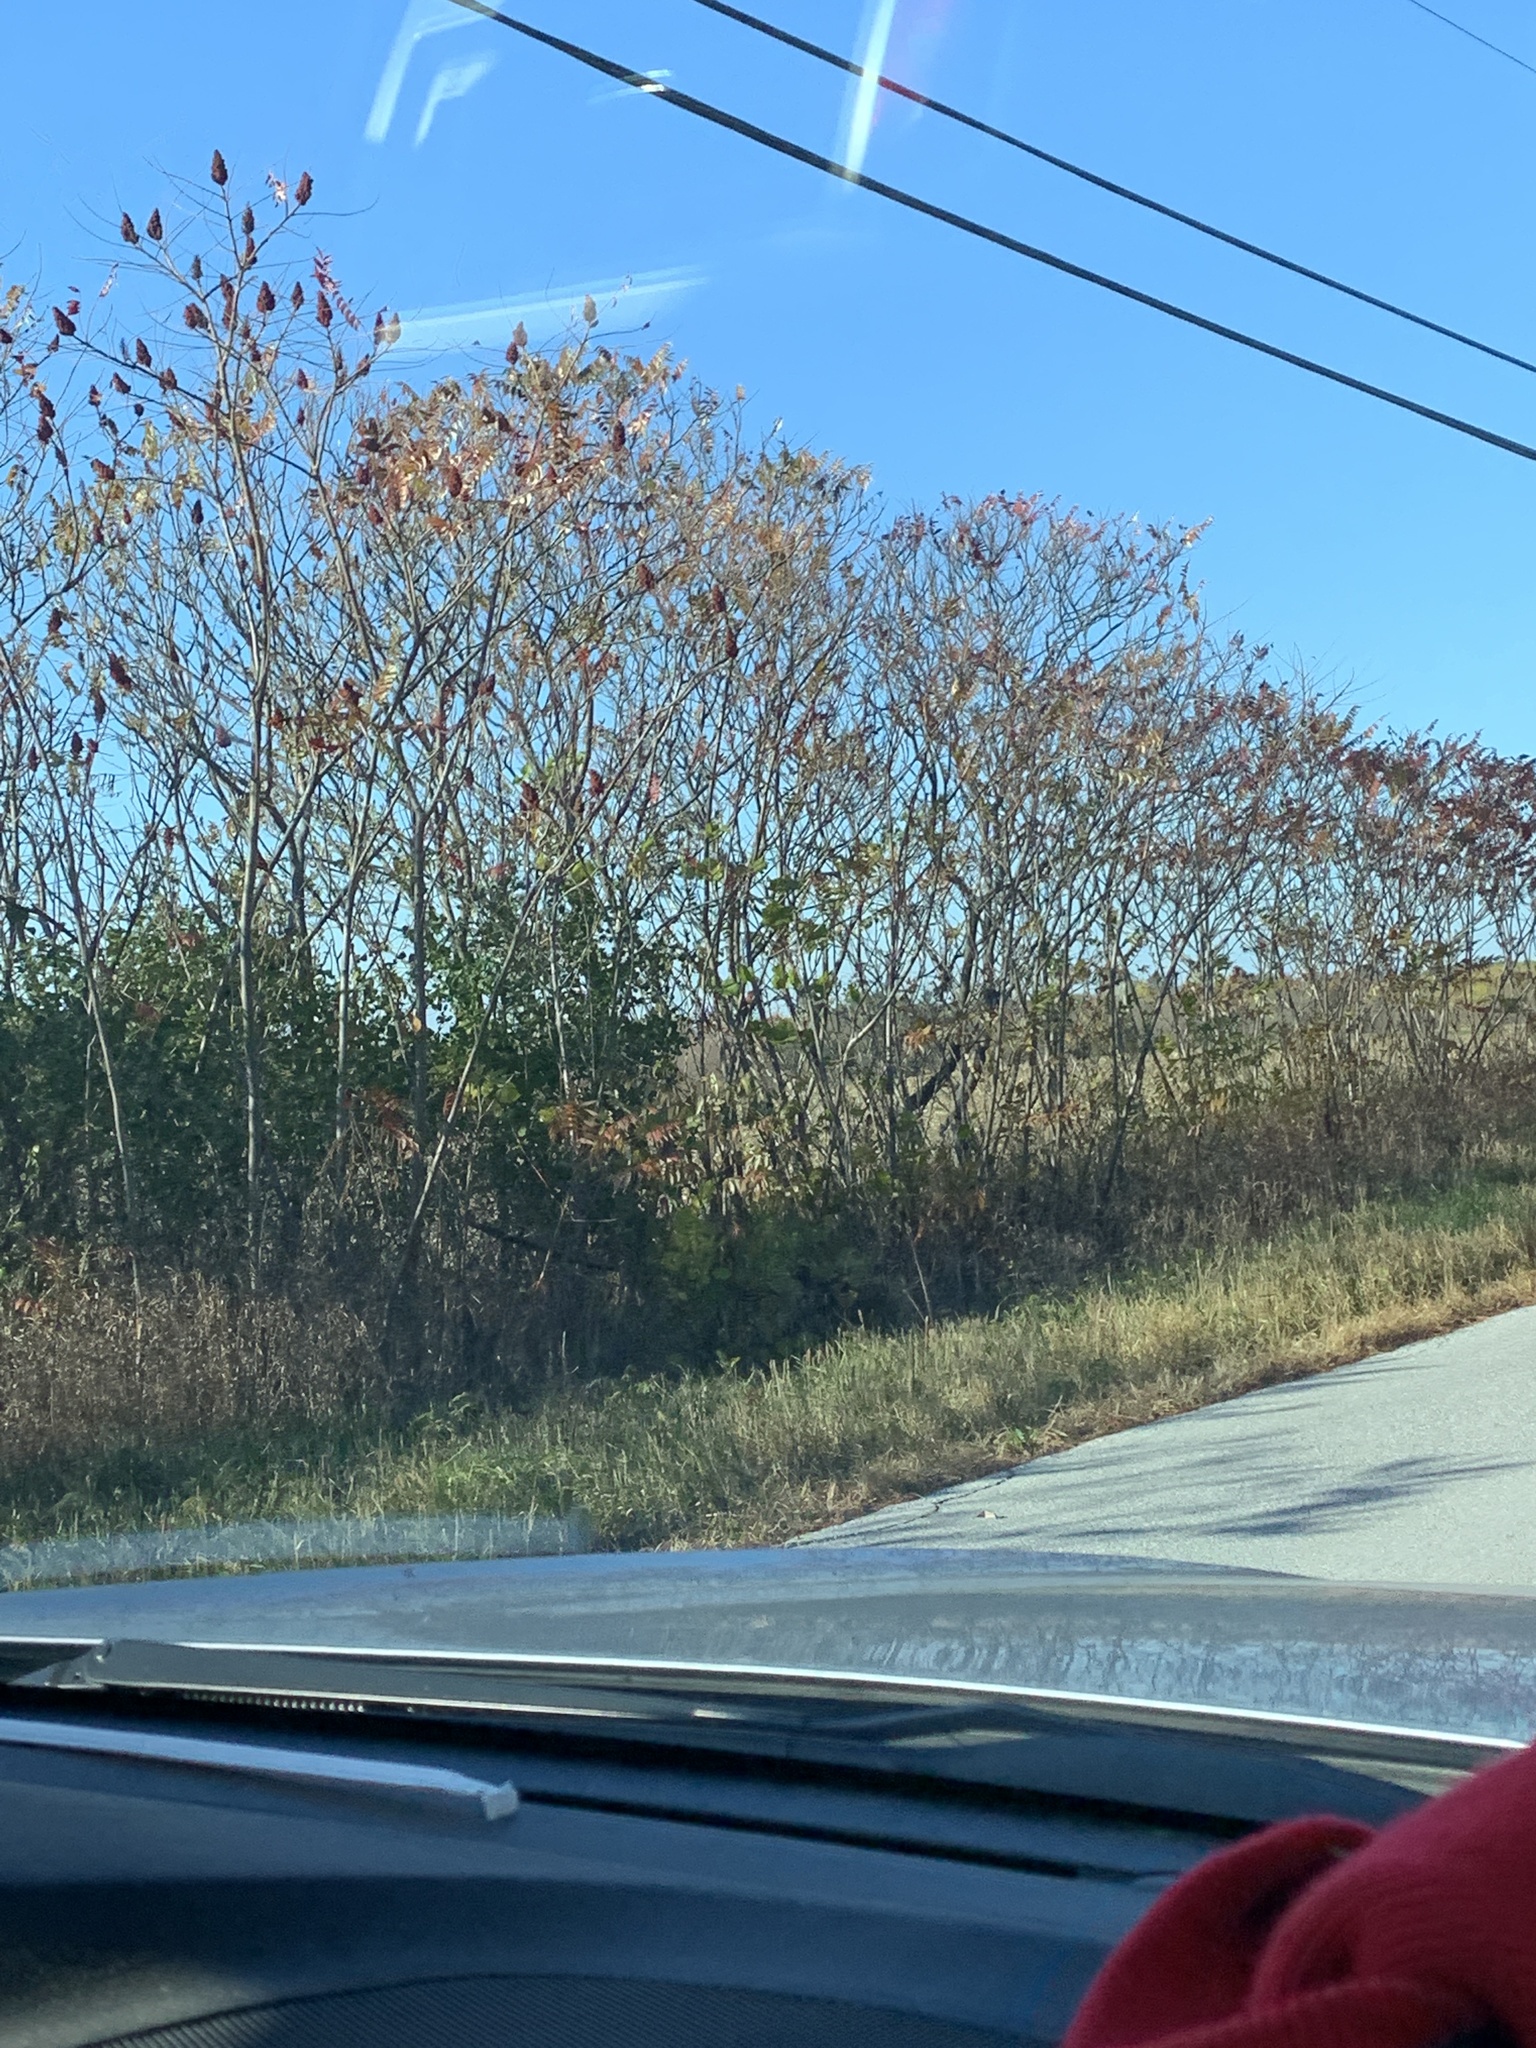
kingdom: Plantae
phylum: Tracheophyta
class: Magnoliopsida
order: Sapindales
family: Anacardiaceae
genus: Rhus
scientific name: Rhus typhina
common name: Staghorn sumac
